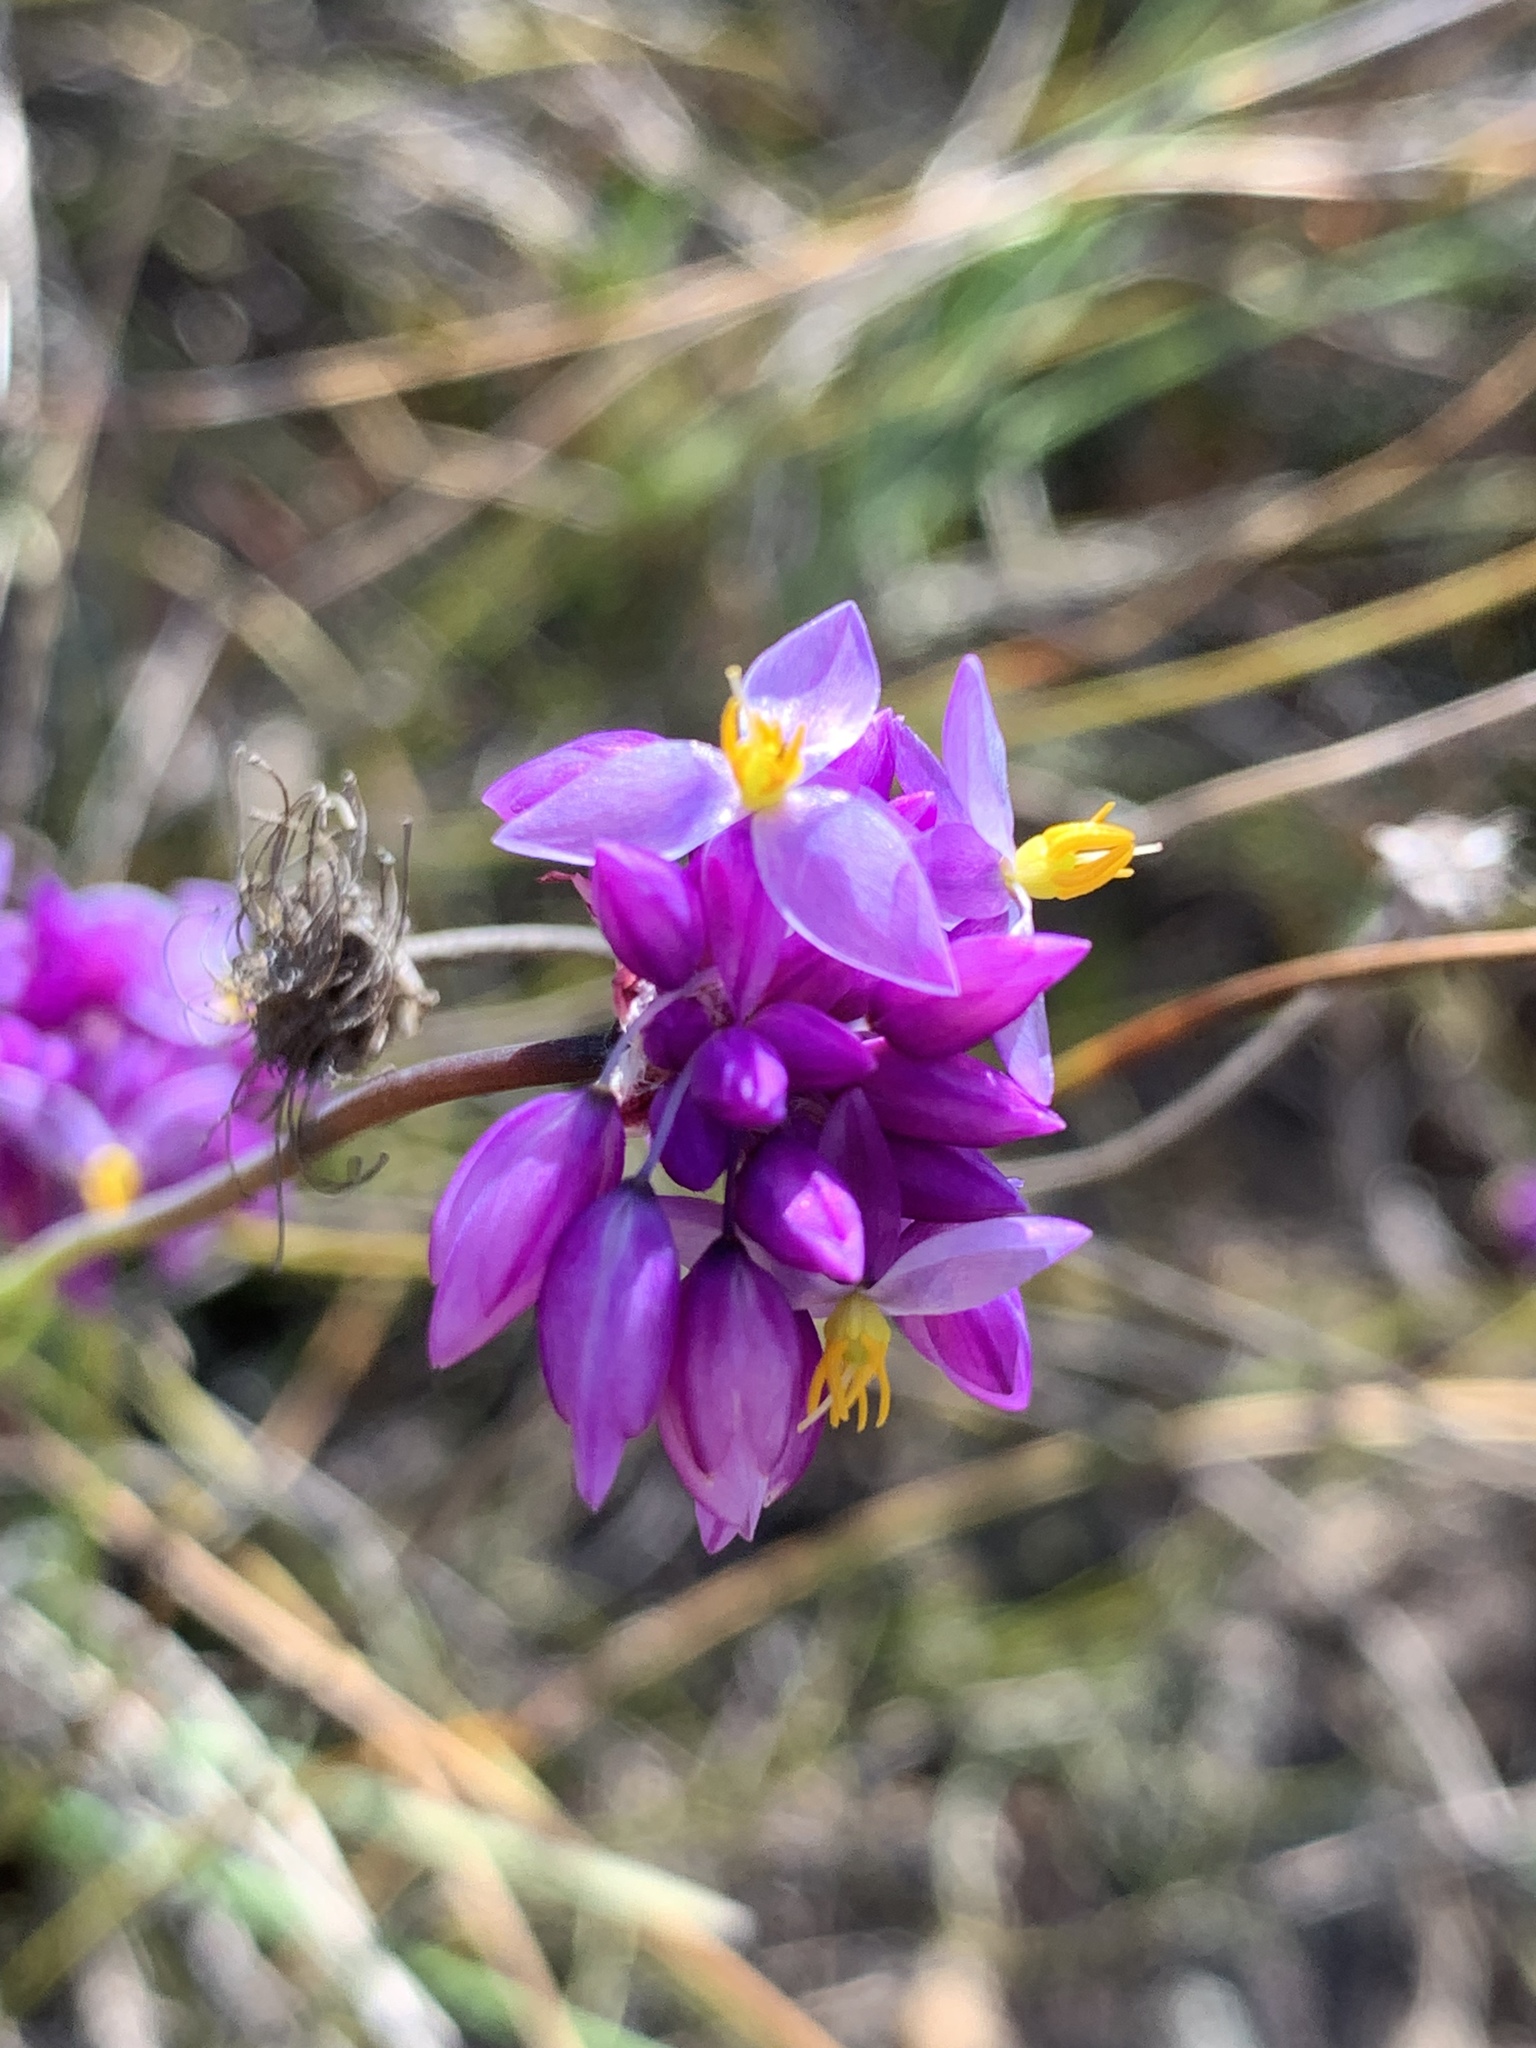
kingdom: Plantae
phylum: Tracheophyta
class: Liliopsida
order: Asparagales
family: Asparagaceae
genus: Sowerbaea
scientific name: Sowerbaea juncea
